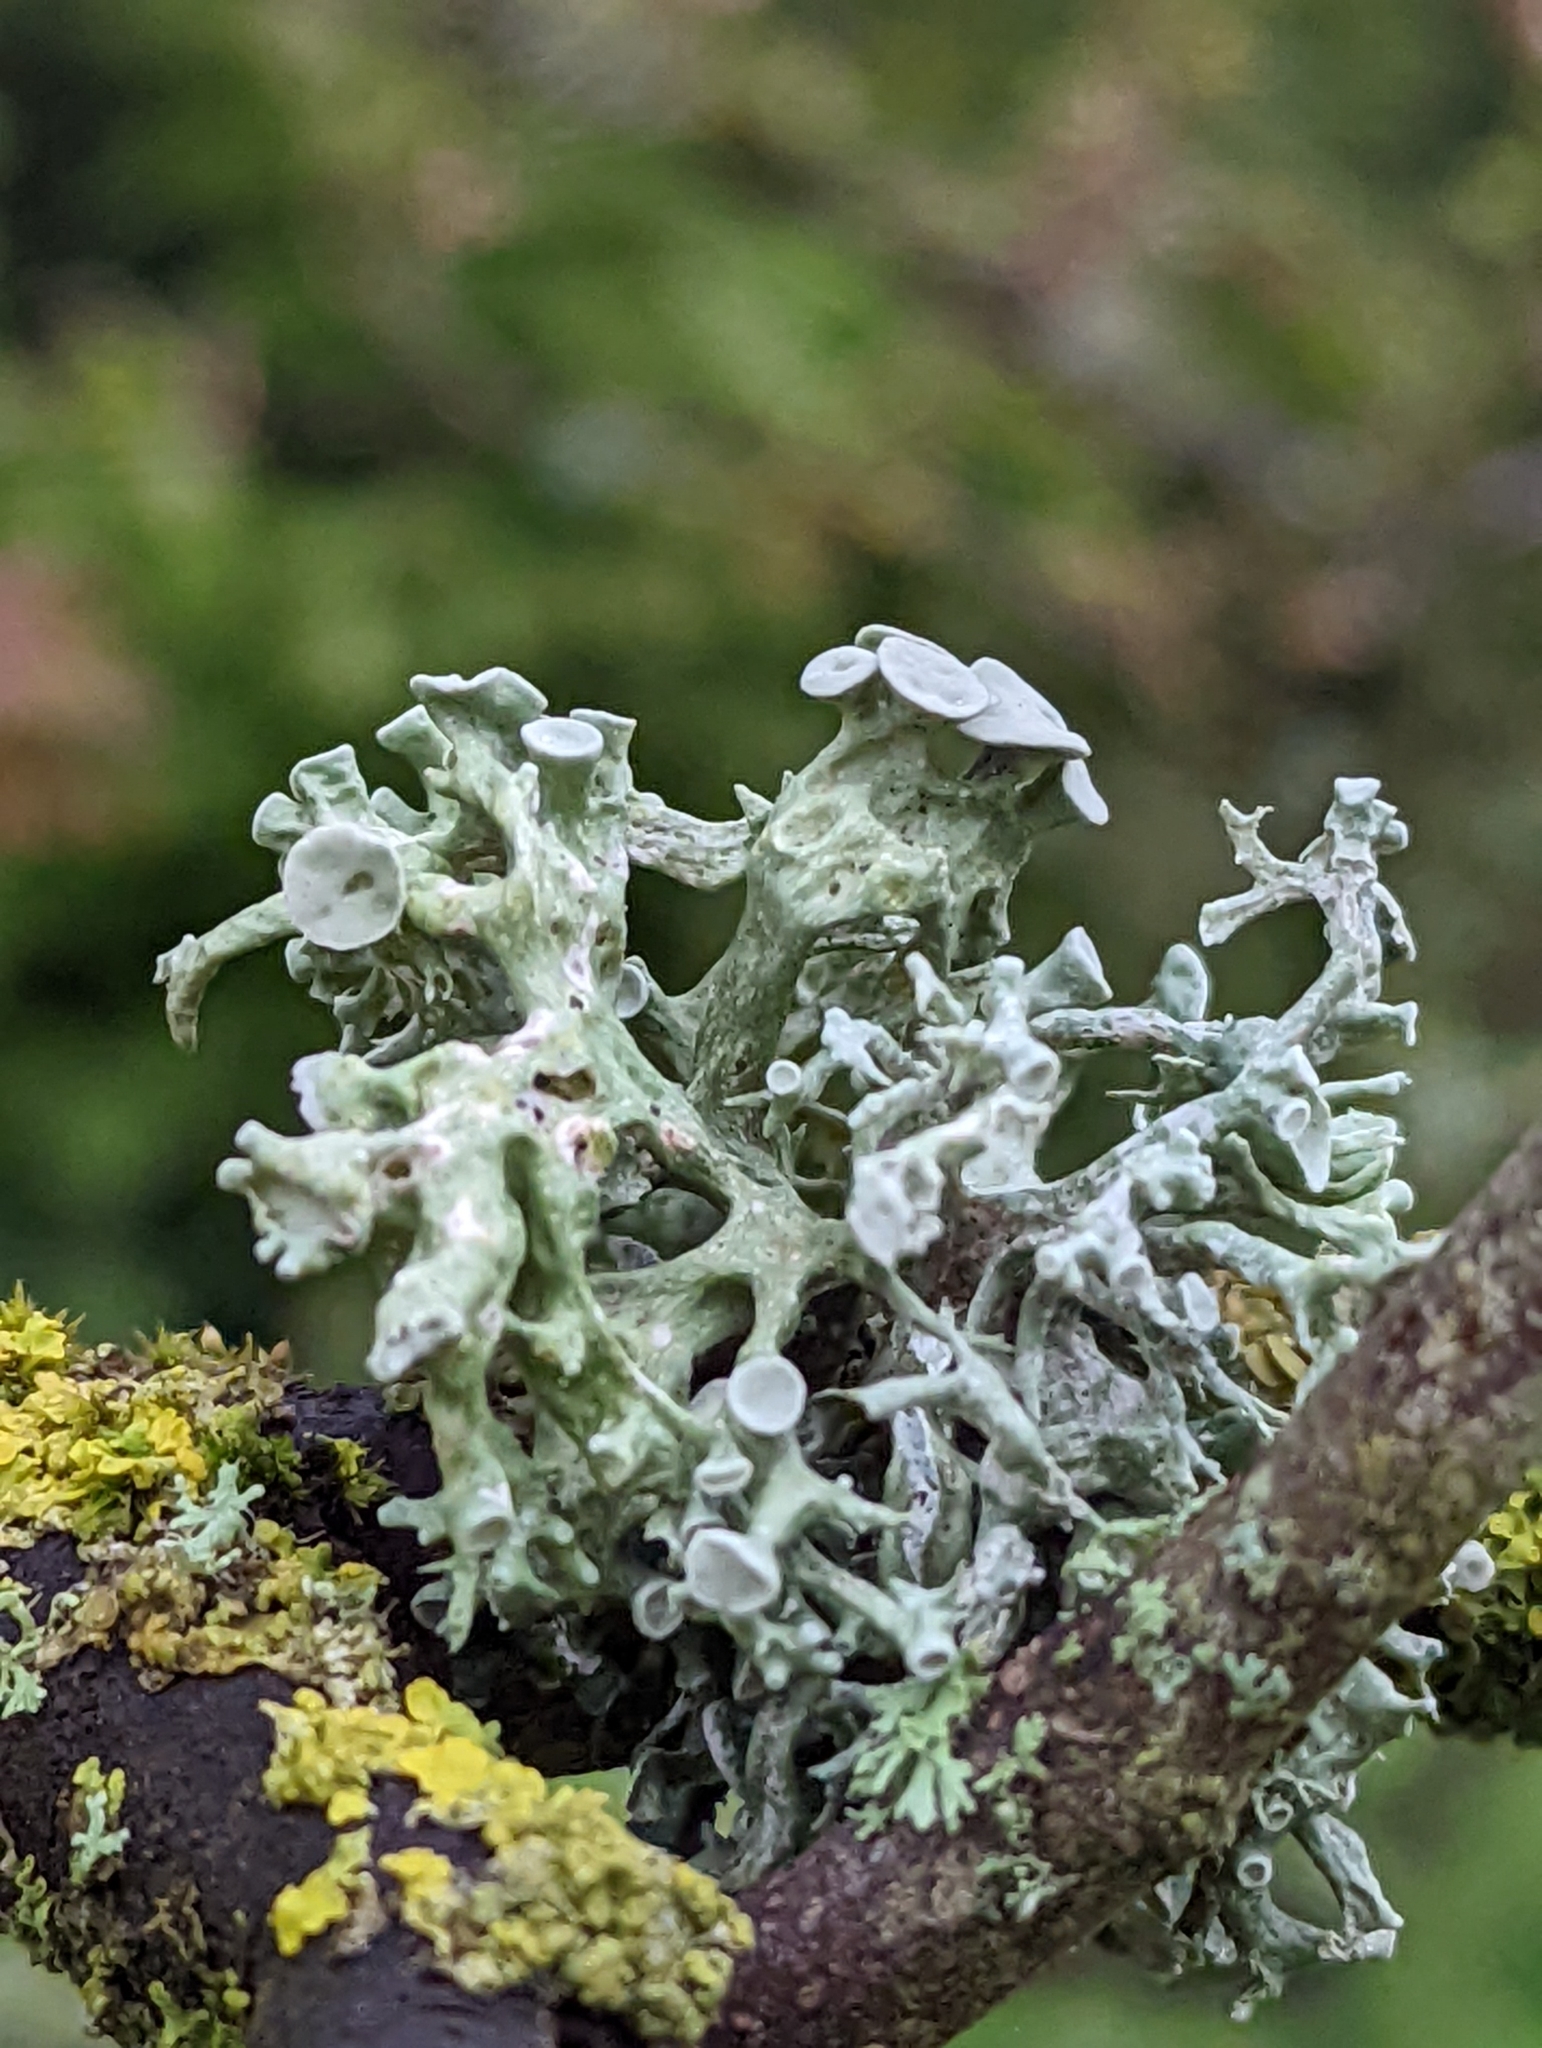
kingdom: Fungi
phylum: Ascomycota
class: Lecanoromycetes
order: Lecanorales
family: Ramalinaceae
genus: Ramalina
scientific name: Ramalina fastigiata
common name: Dotted ribbon lichen
